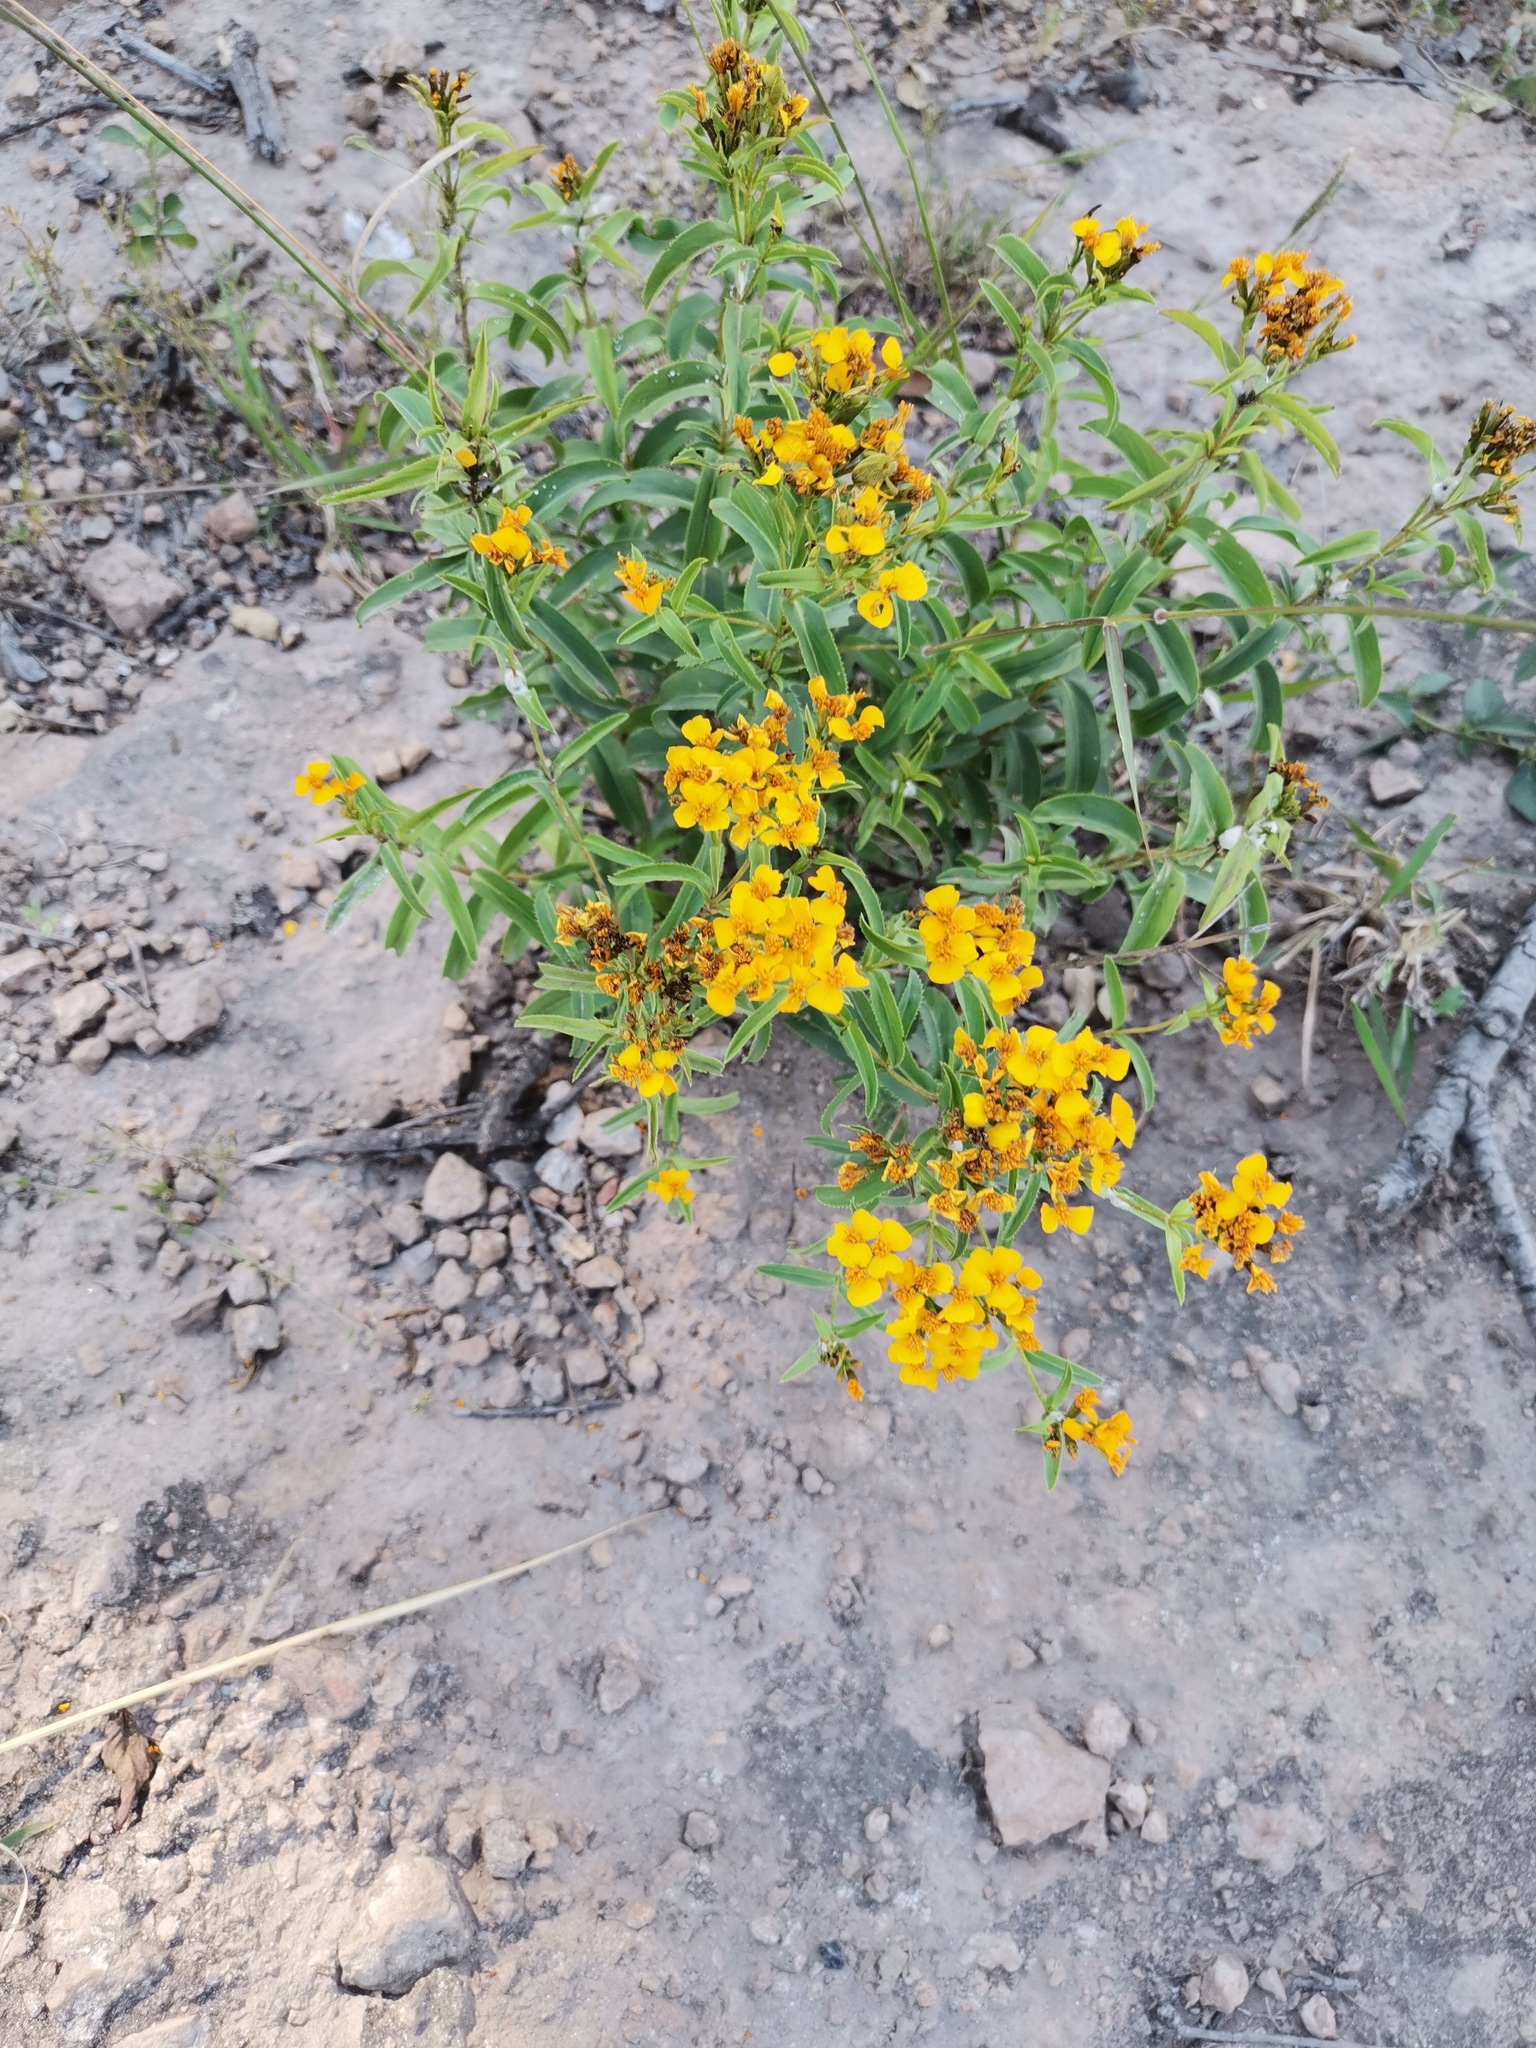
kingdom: Plantae
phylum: Tracheophyta
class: Magnoliopsida
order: Asterales
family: Asteraceae
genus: Tagetes
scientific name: Tagetes lucida
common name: Sweetscented marigold
